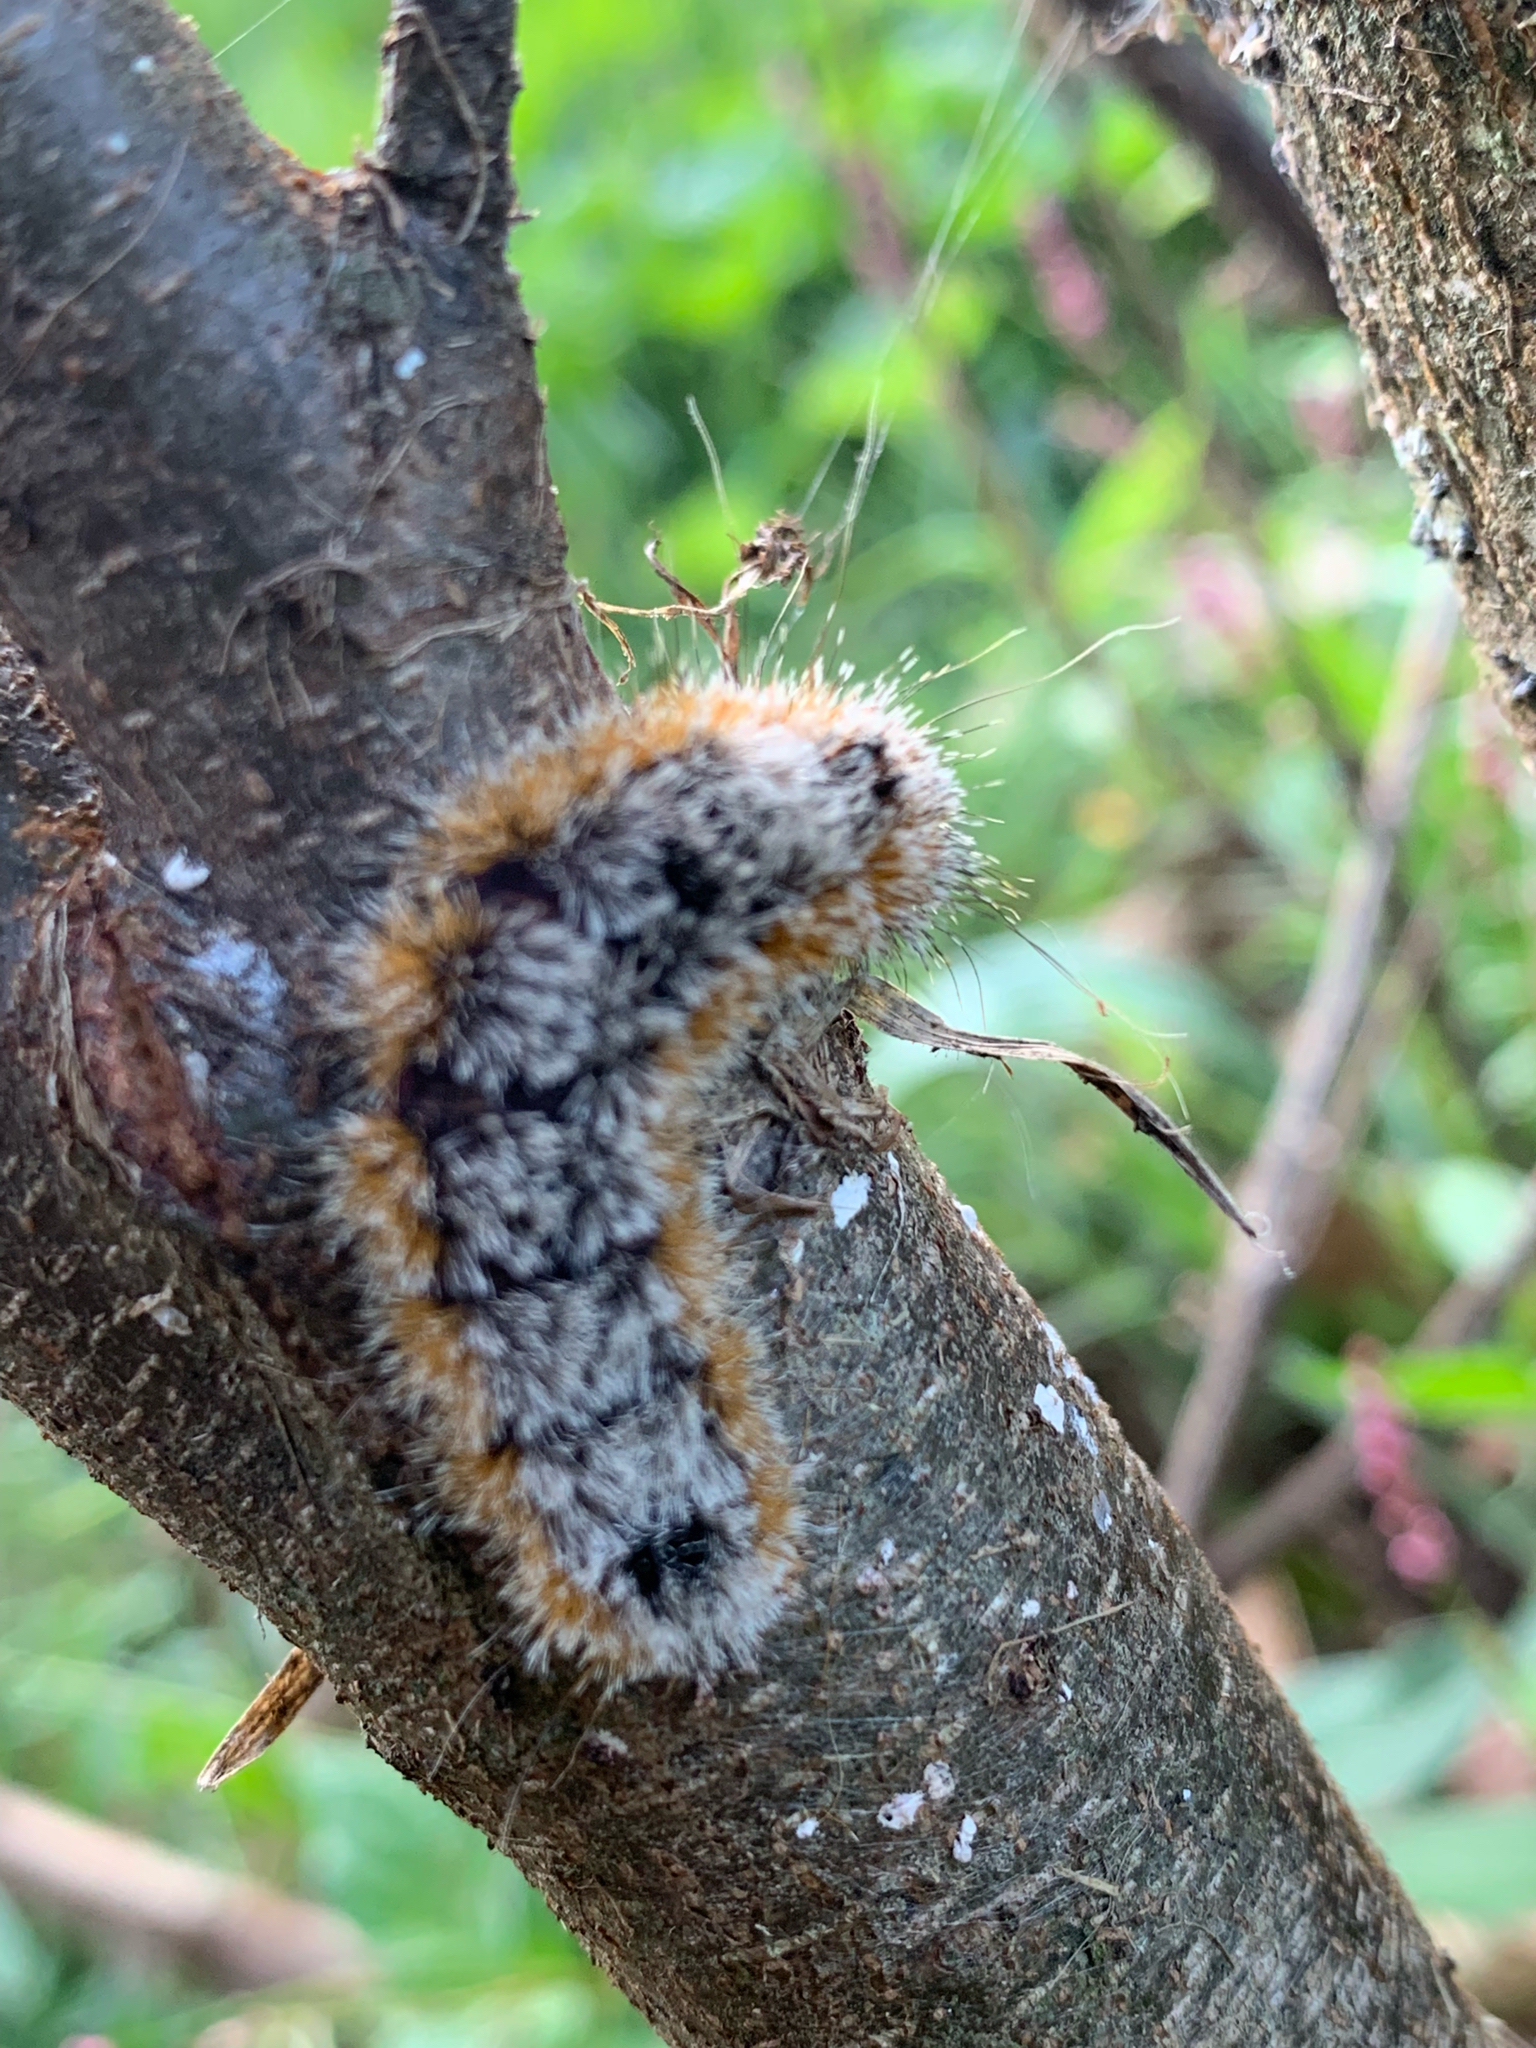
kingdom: Animalia
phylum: Arthropoda
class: Insecta
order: Lepidoptera
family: Noctuidae
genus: Acronicta
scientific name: Acronicta hastulifera
